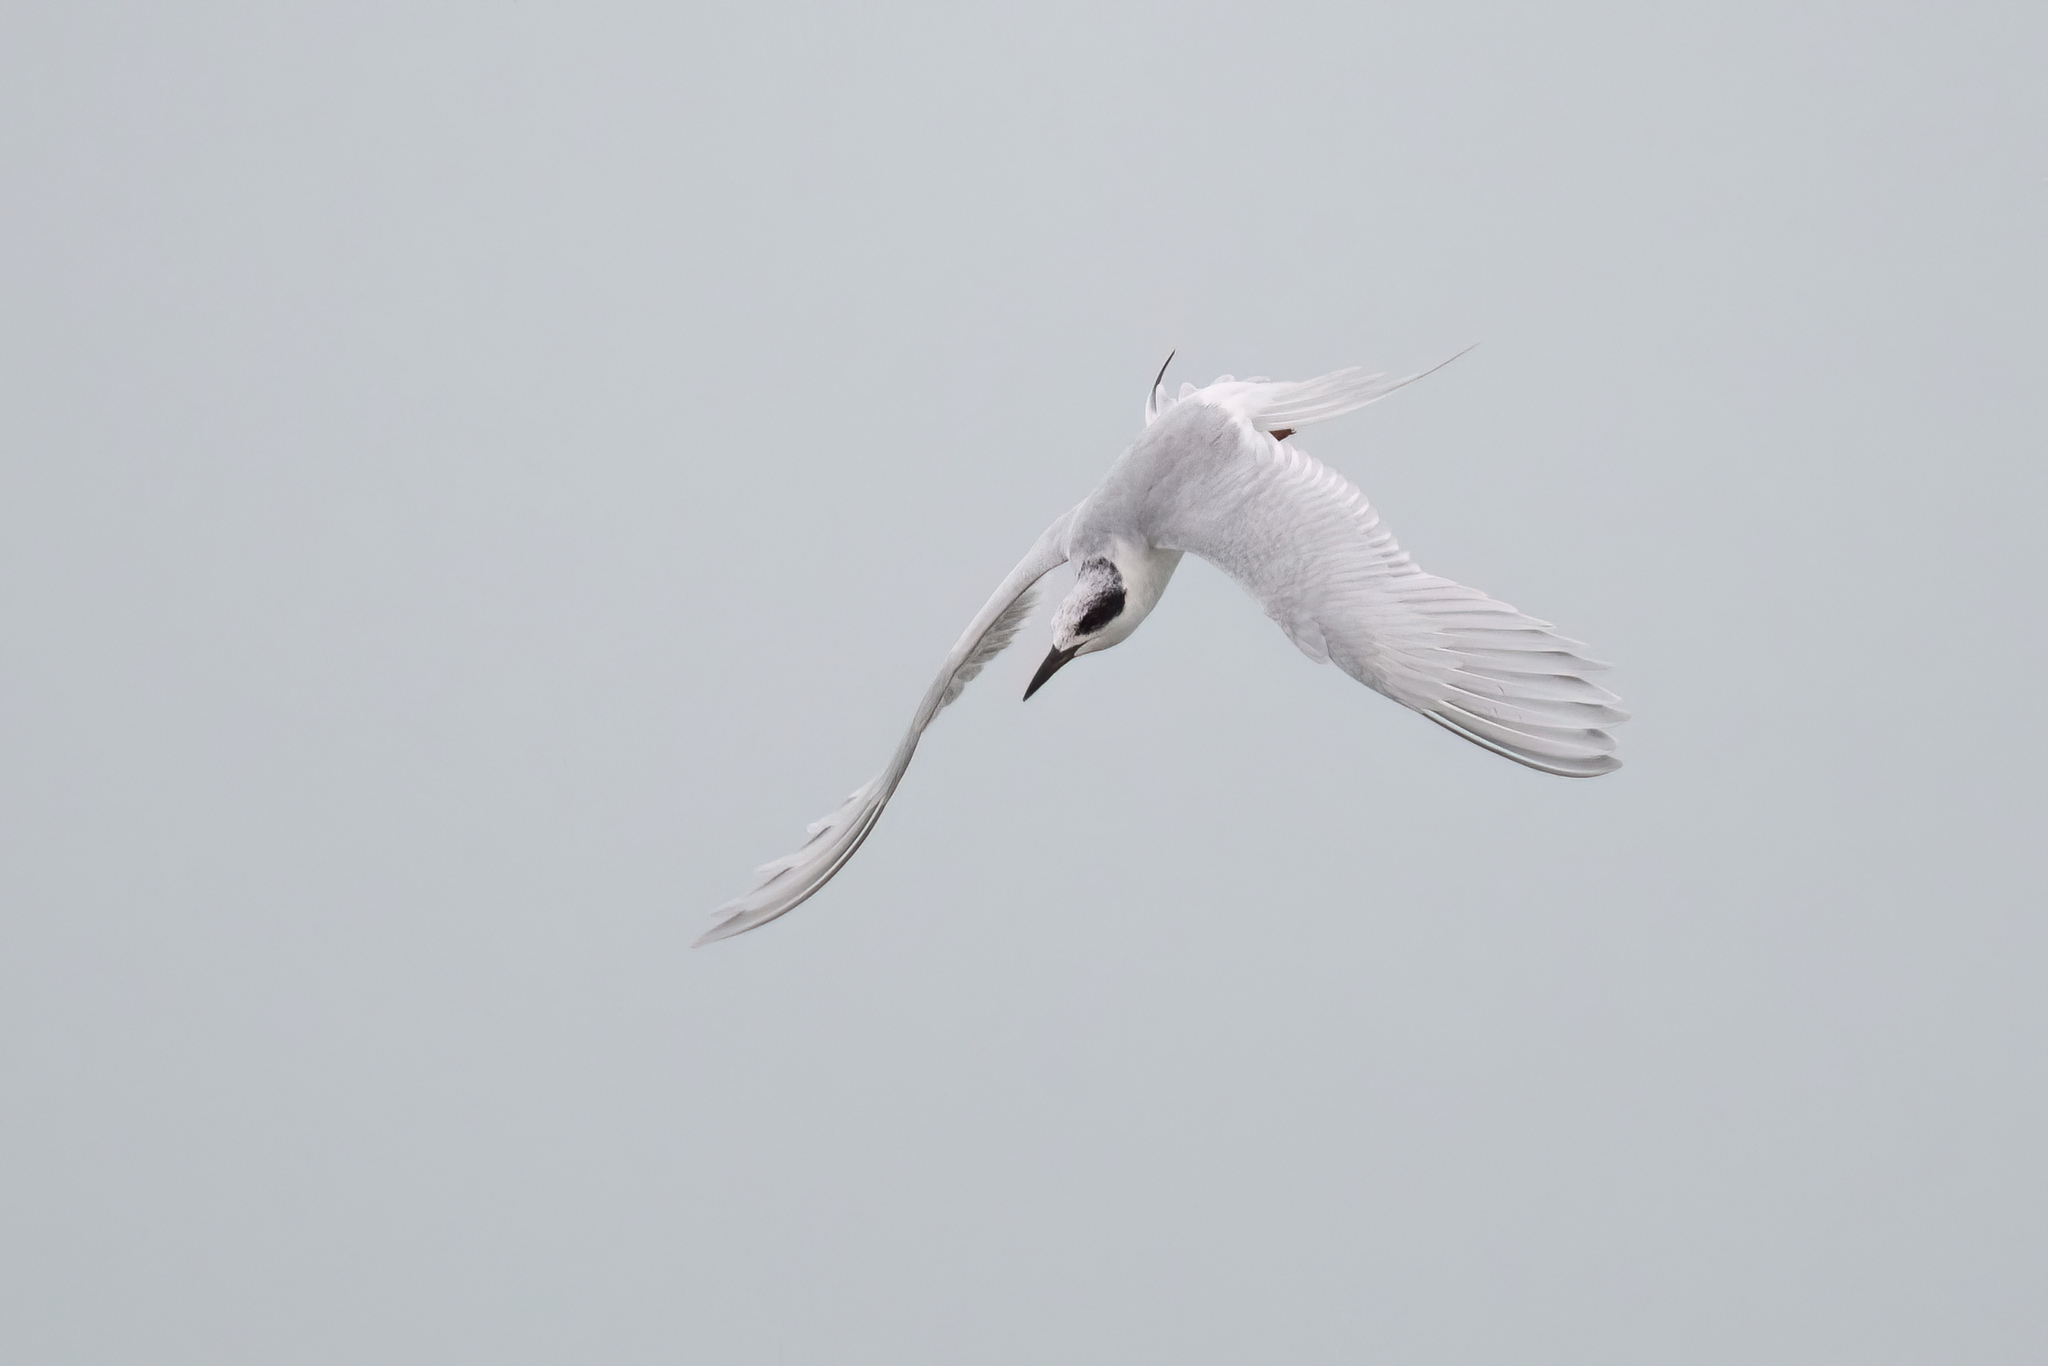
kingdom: Animalia
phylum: Chordata
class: Aves
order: Charadriiformes
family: Laridae
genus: Sterna
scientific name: Sterna forsteri
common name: Forster's tern
